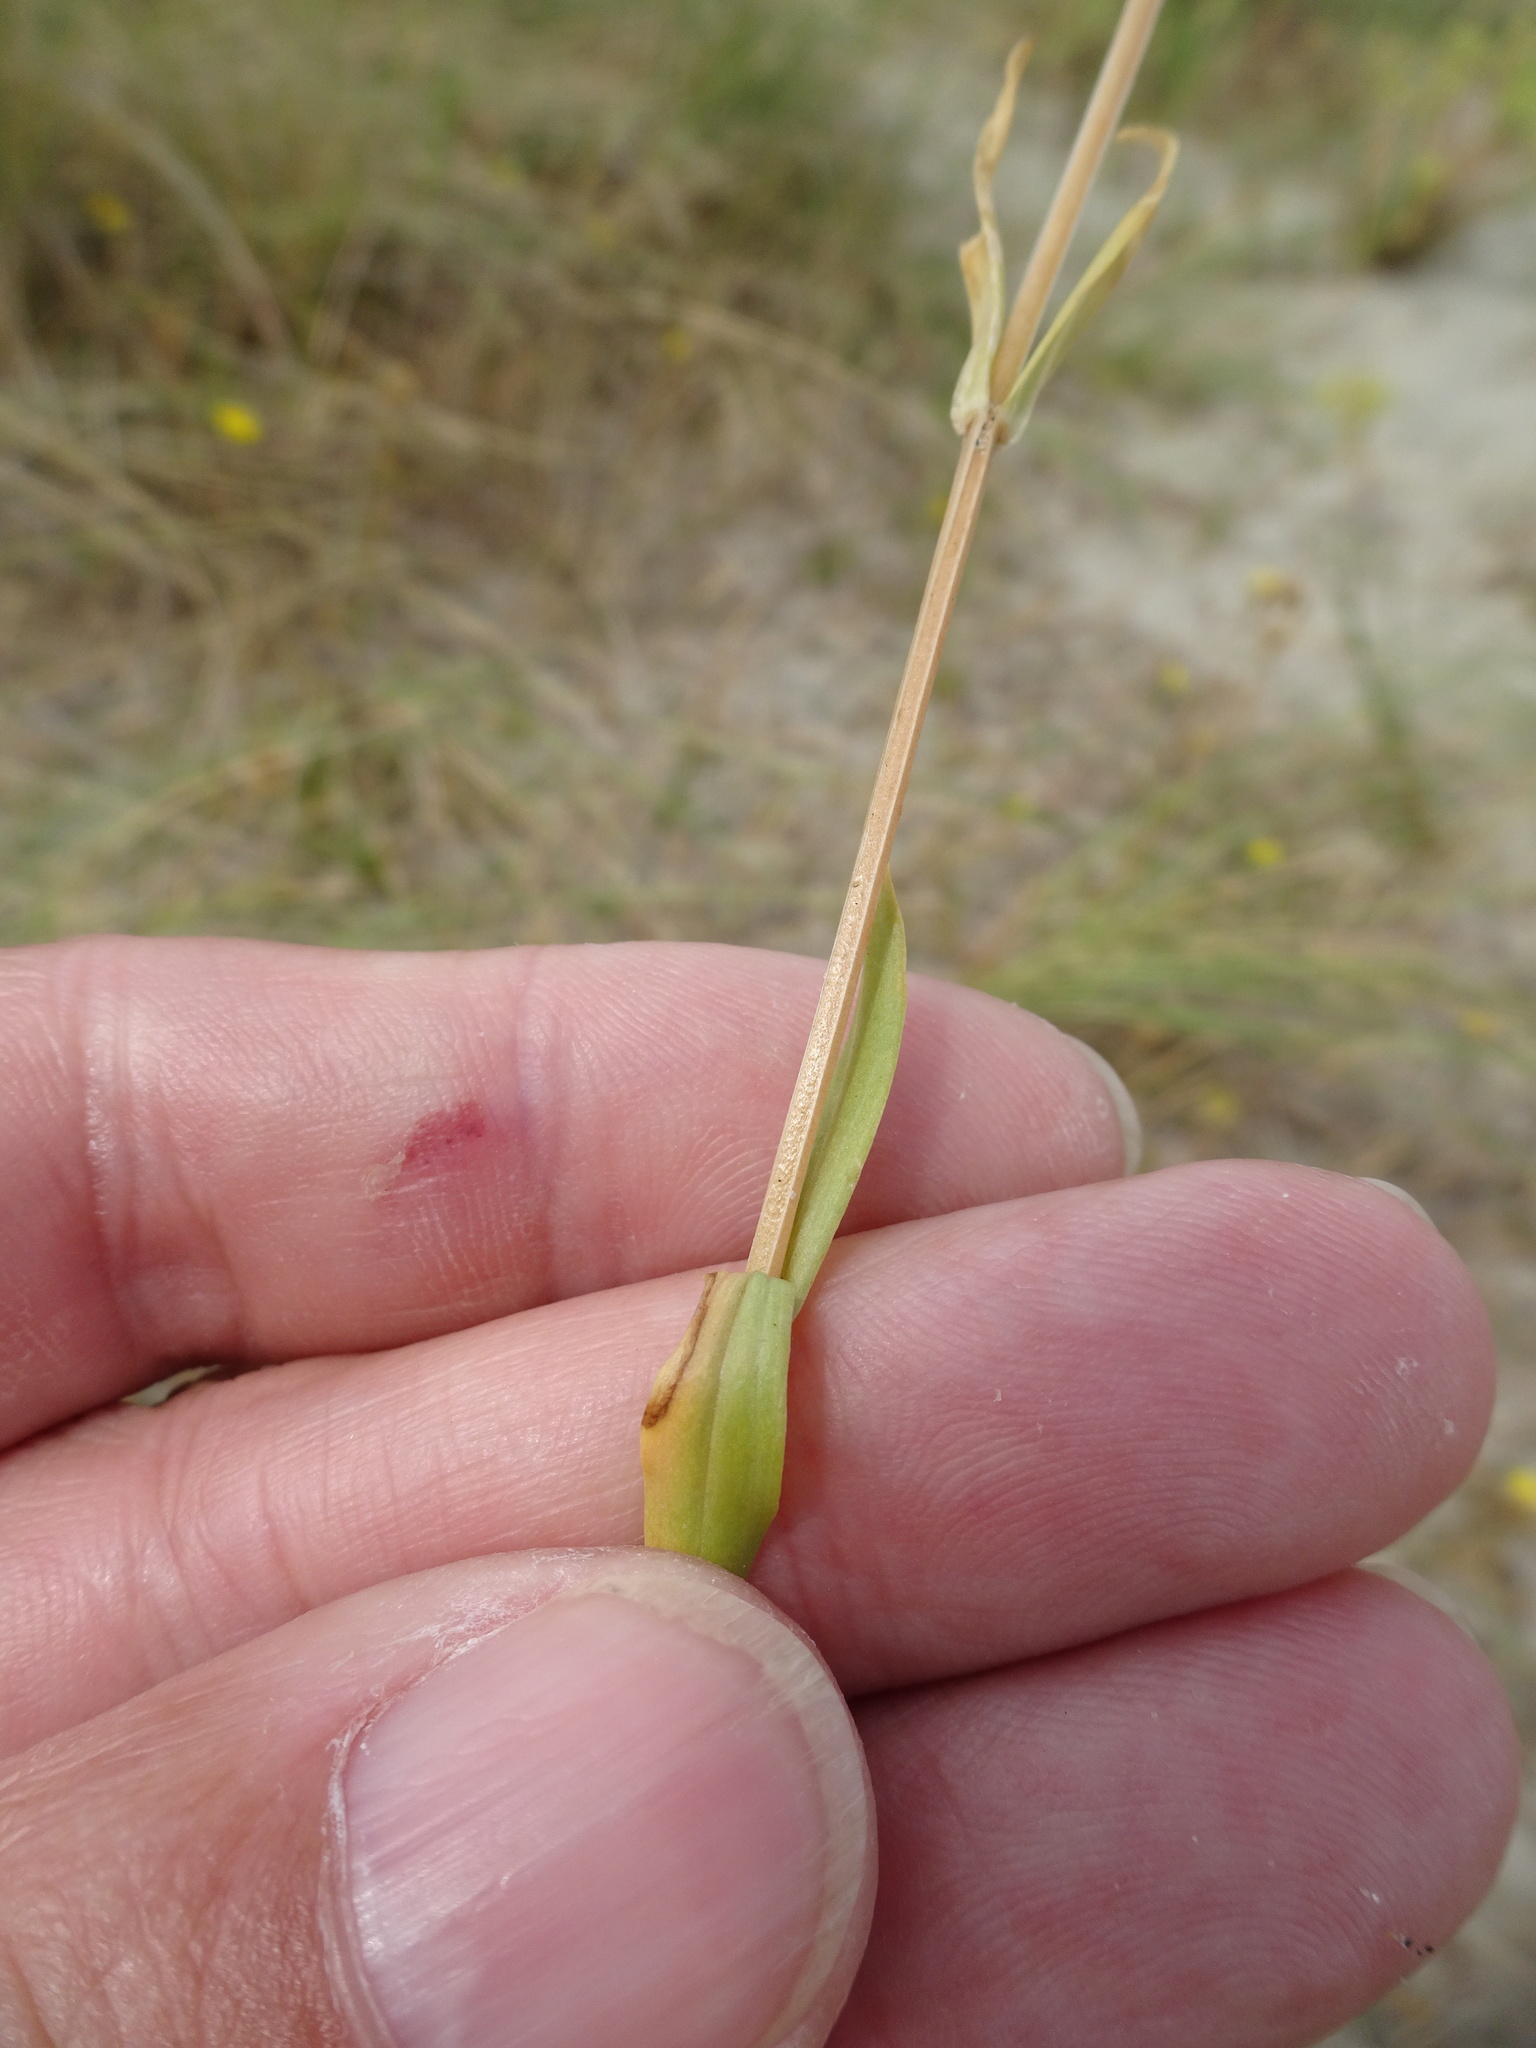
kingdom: Plantae
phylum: Tracheophyta
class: Magnoliopsida
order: Gentianales
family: Gentianaceae
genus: Centaurium
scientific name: Centaurium erythraea
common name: Common centaury
